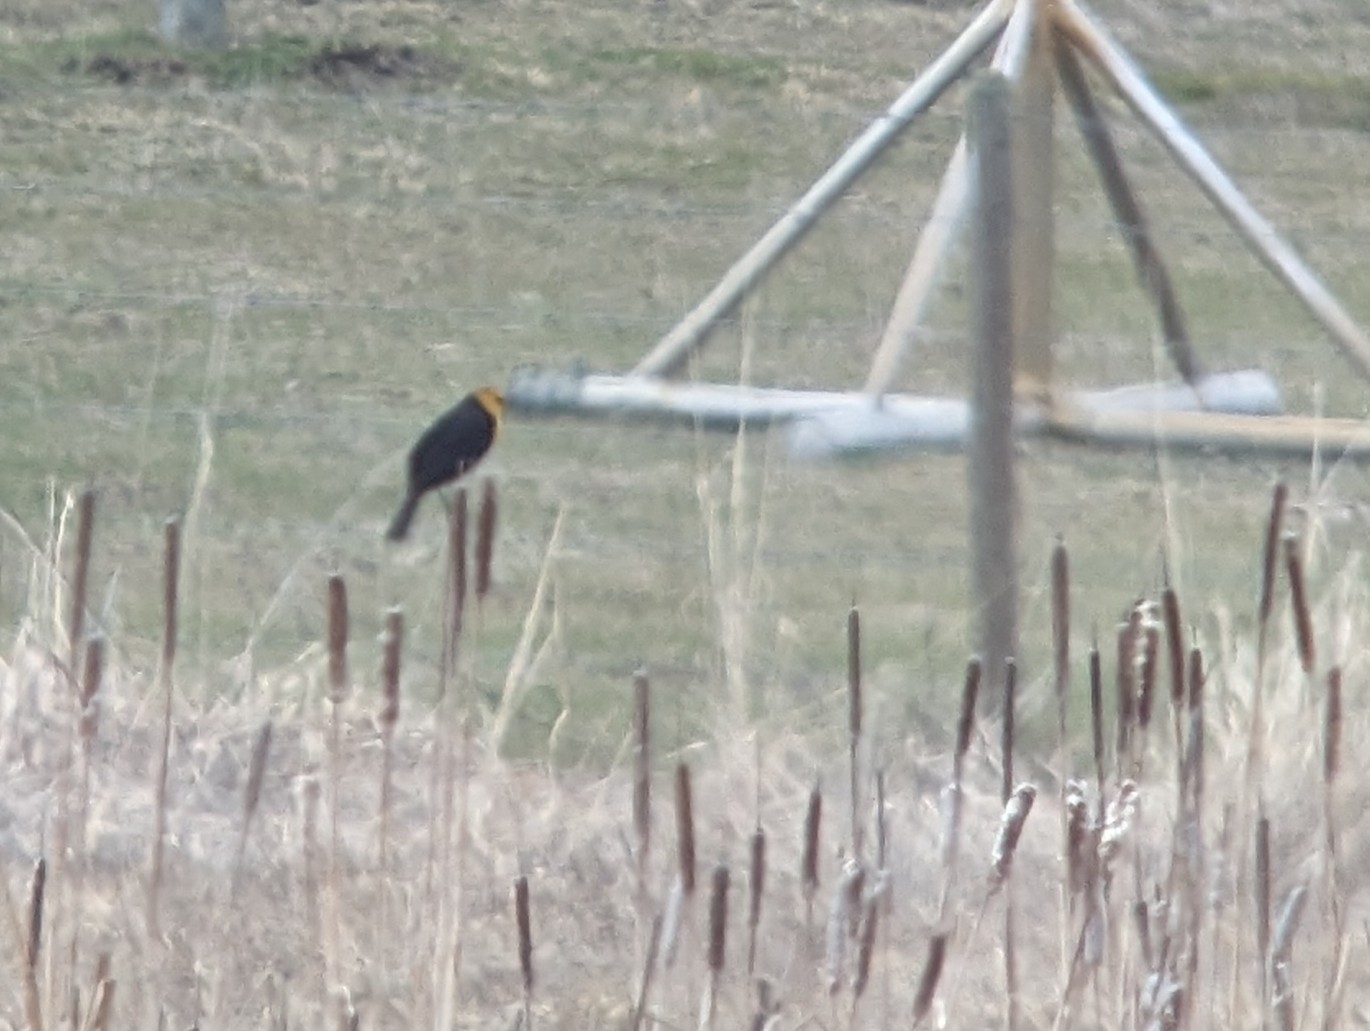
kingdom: Animalia
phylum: Chordata
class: Aves
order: Passeriformes
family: Icteridae
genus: Xanthocephalus
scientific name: Xanthocephalus xanthocephalus
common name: Yellow-headed blackbird
